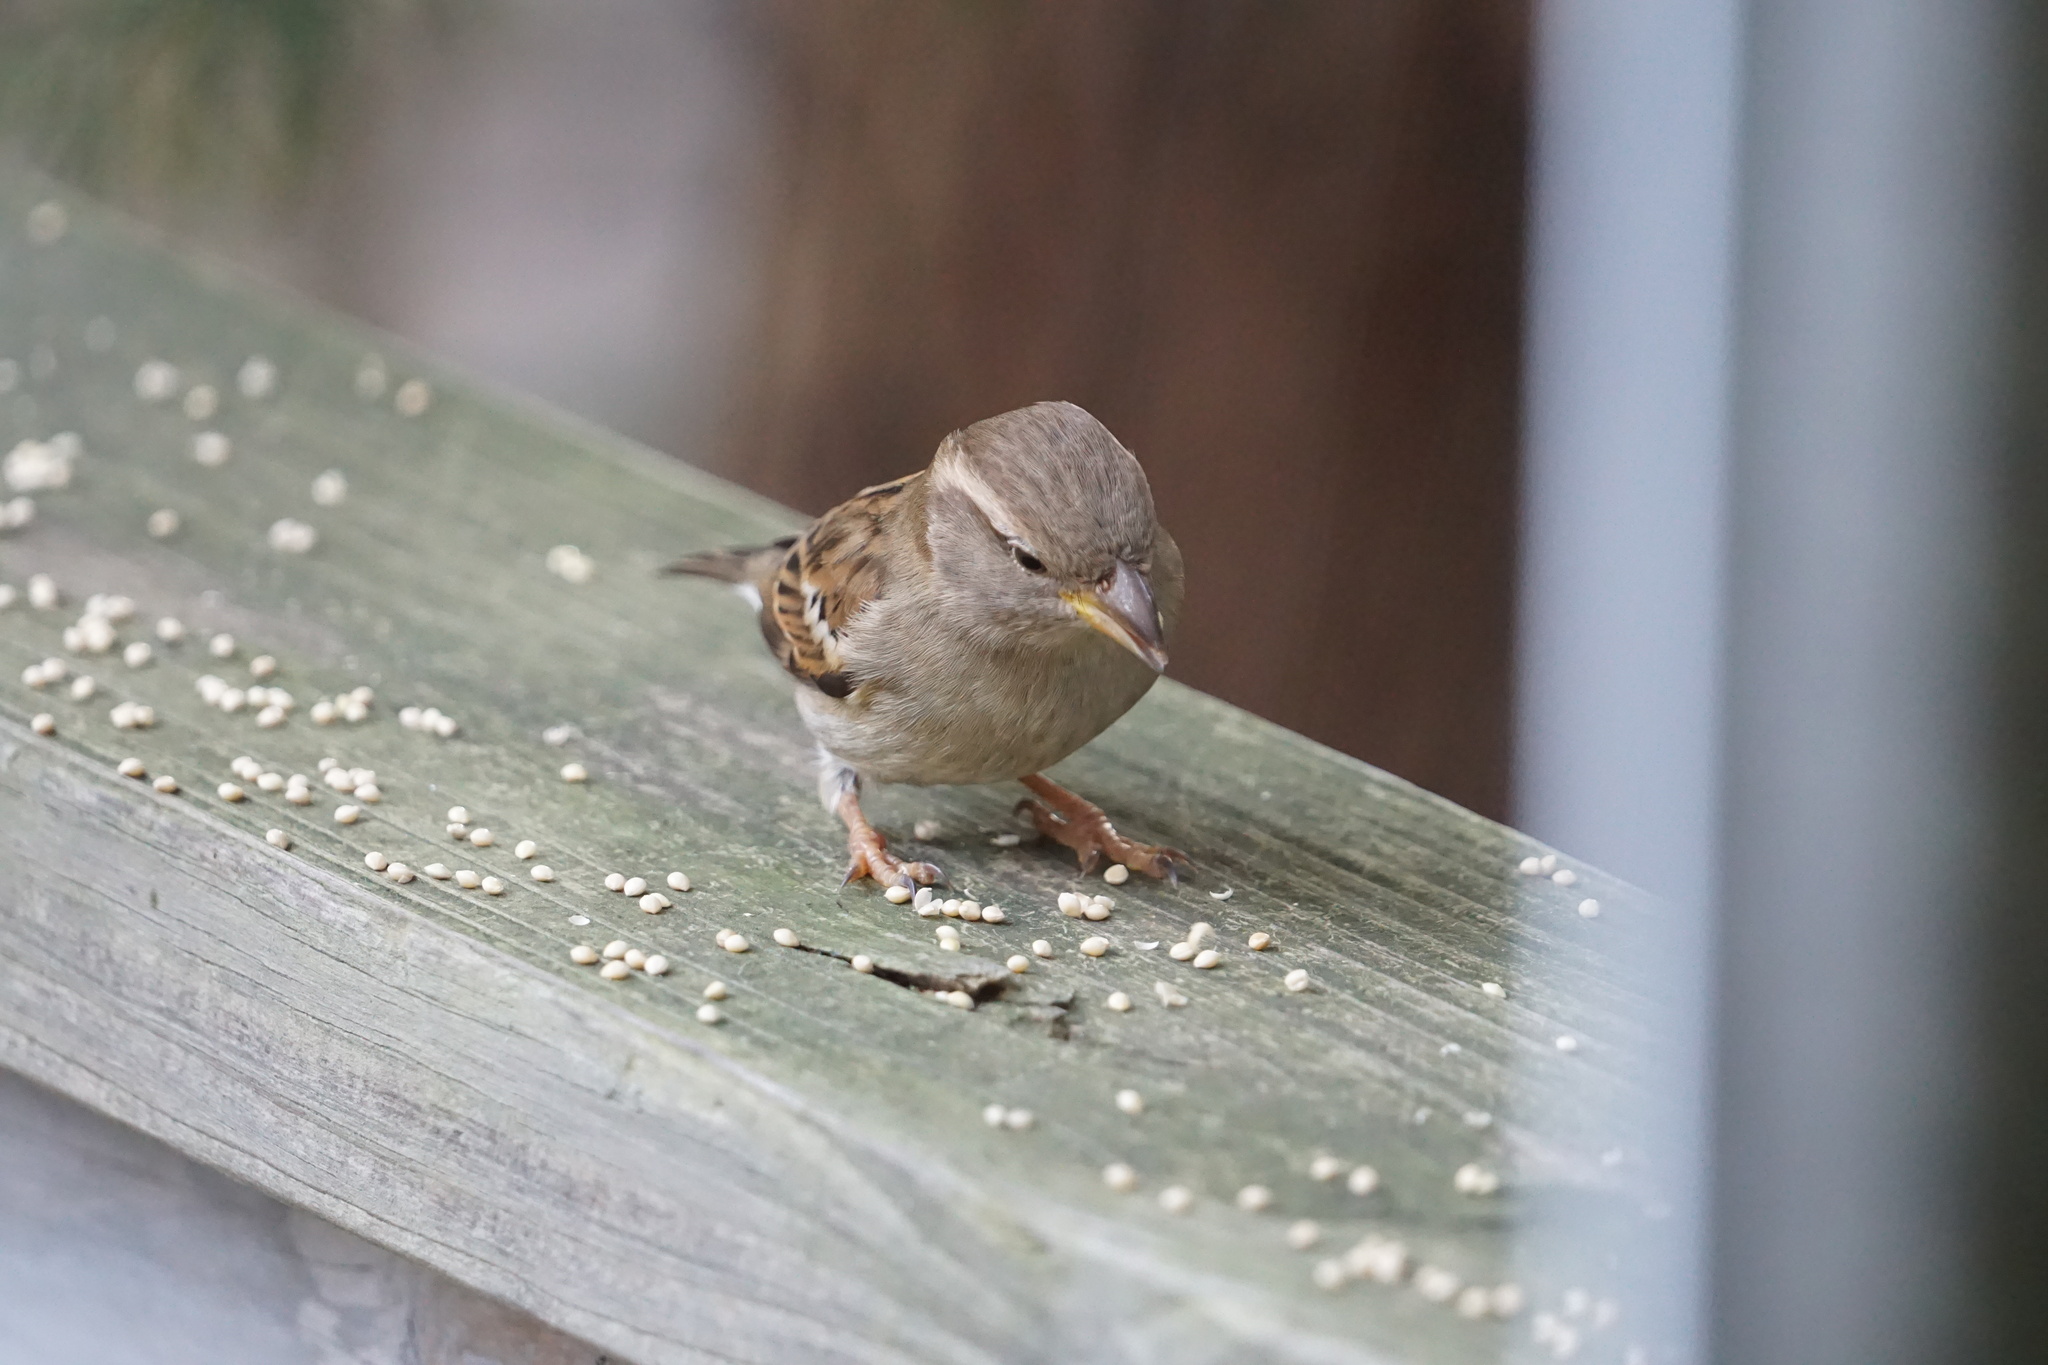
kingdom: Animalia
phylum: Chordata
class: Aves
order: Passeriformes
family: Passeridae
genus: Passer
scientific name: Passer domesticus
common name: House sparrow
